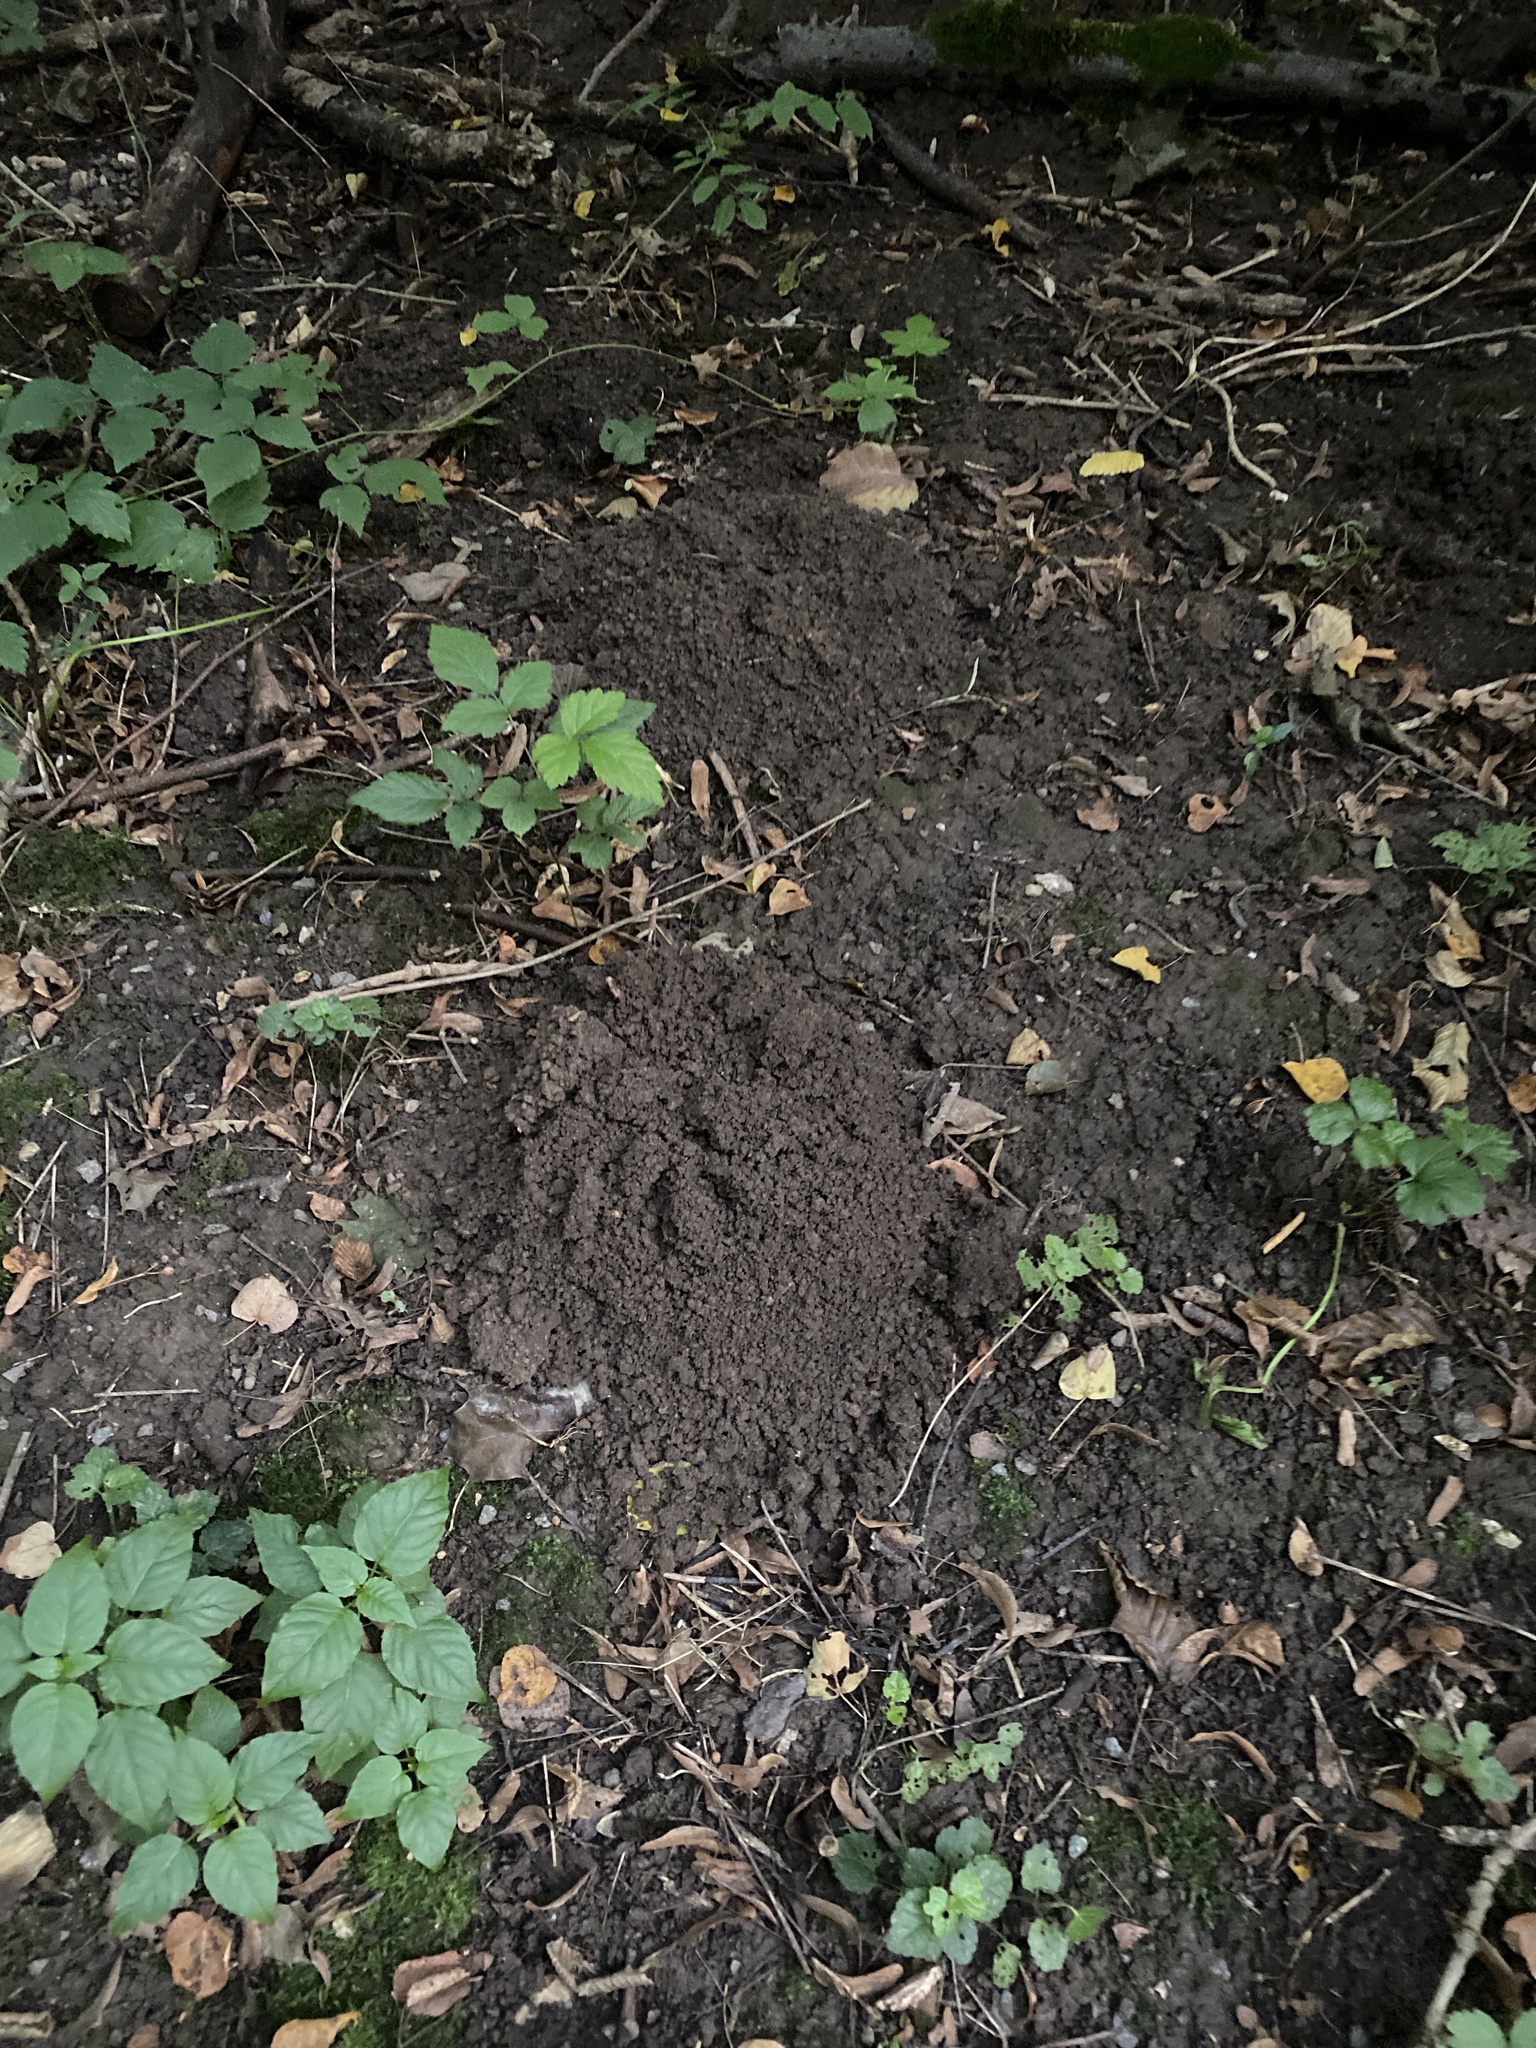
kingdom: Animalia
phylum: Chordata
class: Mammalia
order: Soricomorpha
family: Talpidae
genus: Talpa
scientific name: Talpa europaea
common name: European mole
